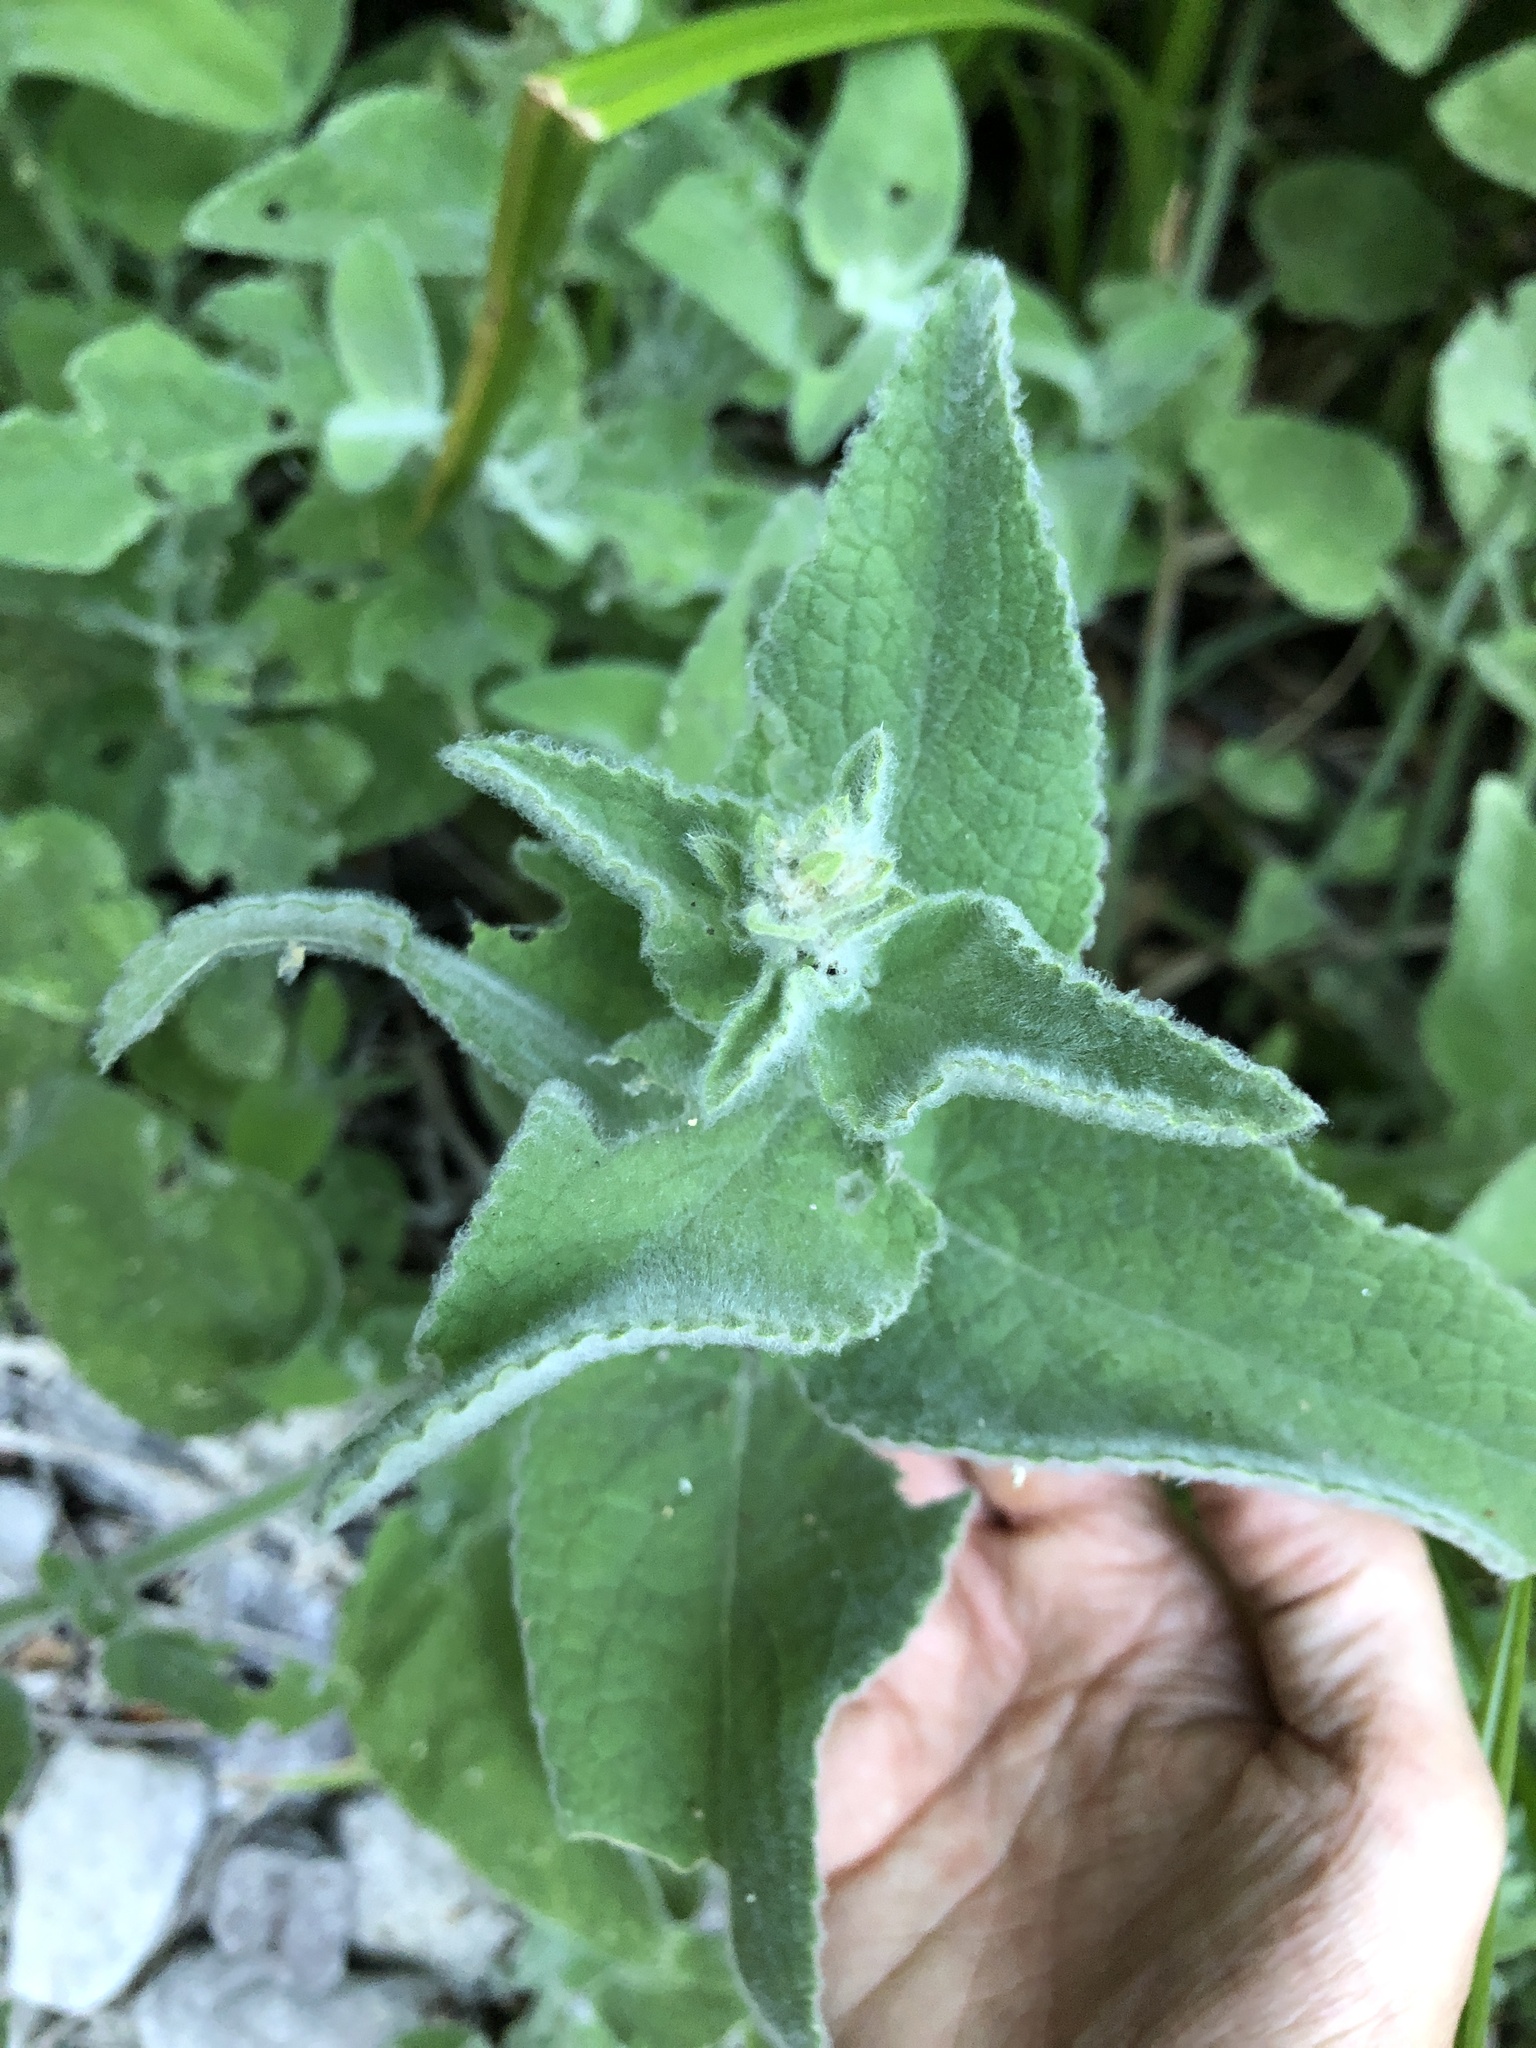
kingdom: Plantae
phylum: Tracheophyta
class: Magnoliopsida
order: Lamiales
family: Lamiaceae
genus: Stachys
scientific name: Stachys albens
